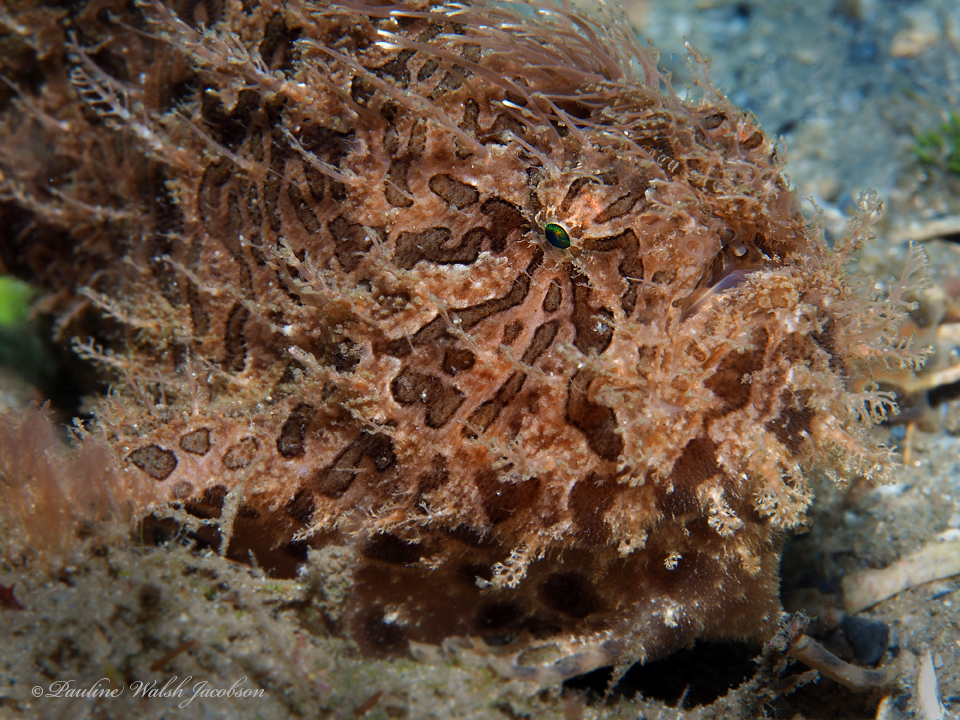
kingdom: Animalia
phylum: Chordata
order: Lophiiformes
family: Antennariidae
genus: Antennarius
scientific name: Antennarius striatus
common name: Striated frogfish
